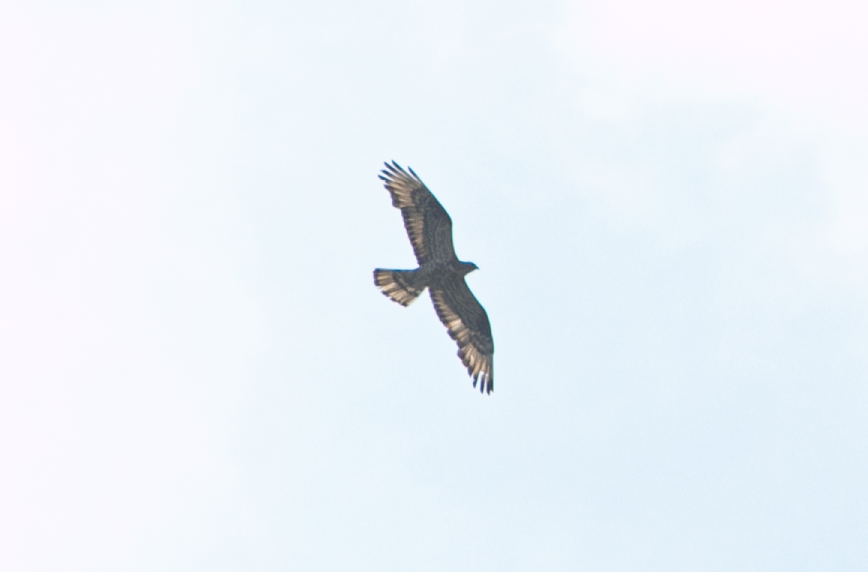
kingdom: Animalia
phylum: Chordata
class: Aves
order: Accipitriformes
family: Accipitridae
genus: Pernis
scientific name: Pernis apivorus
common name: European honey buzzard
